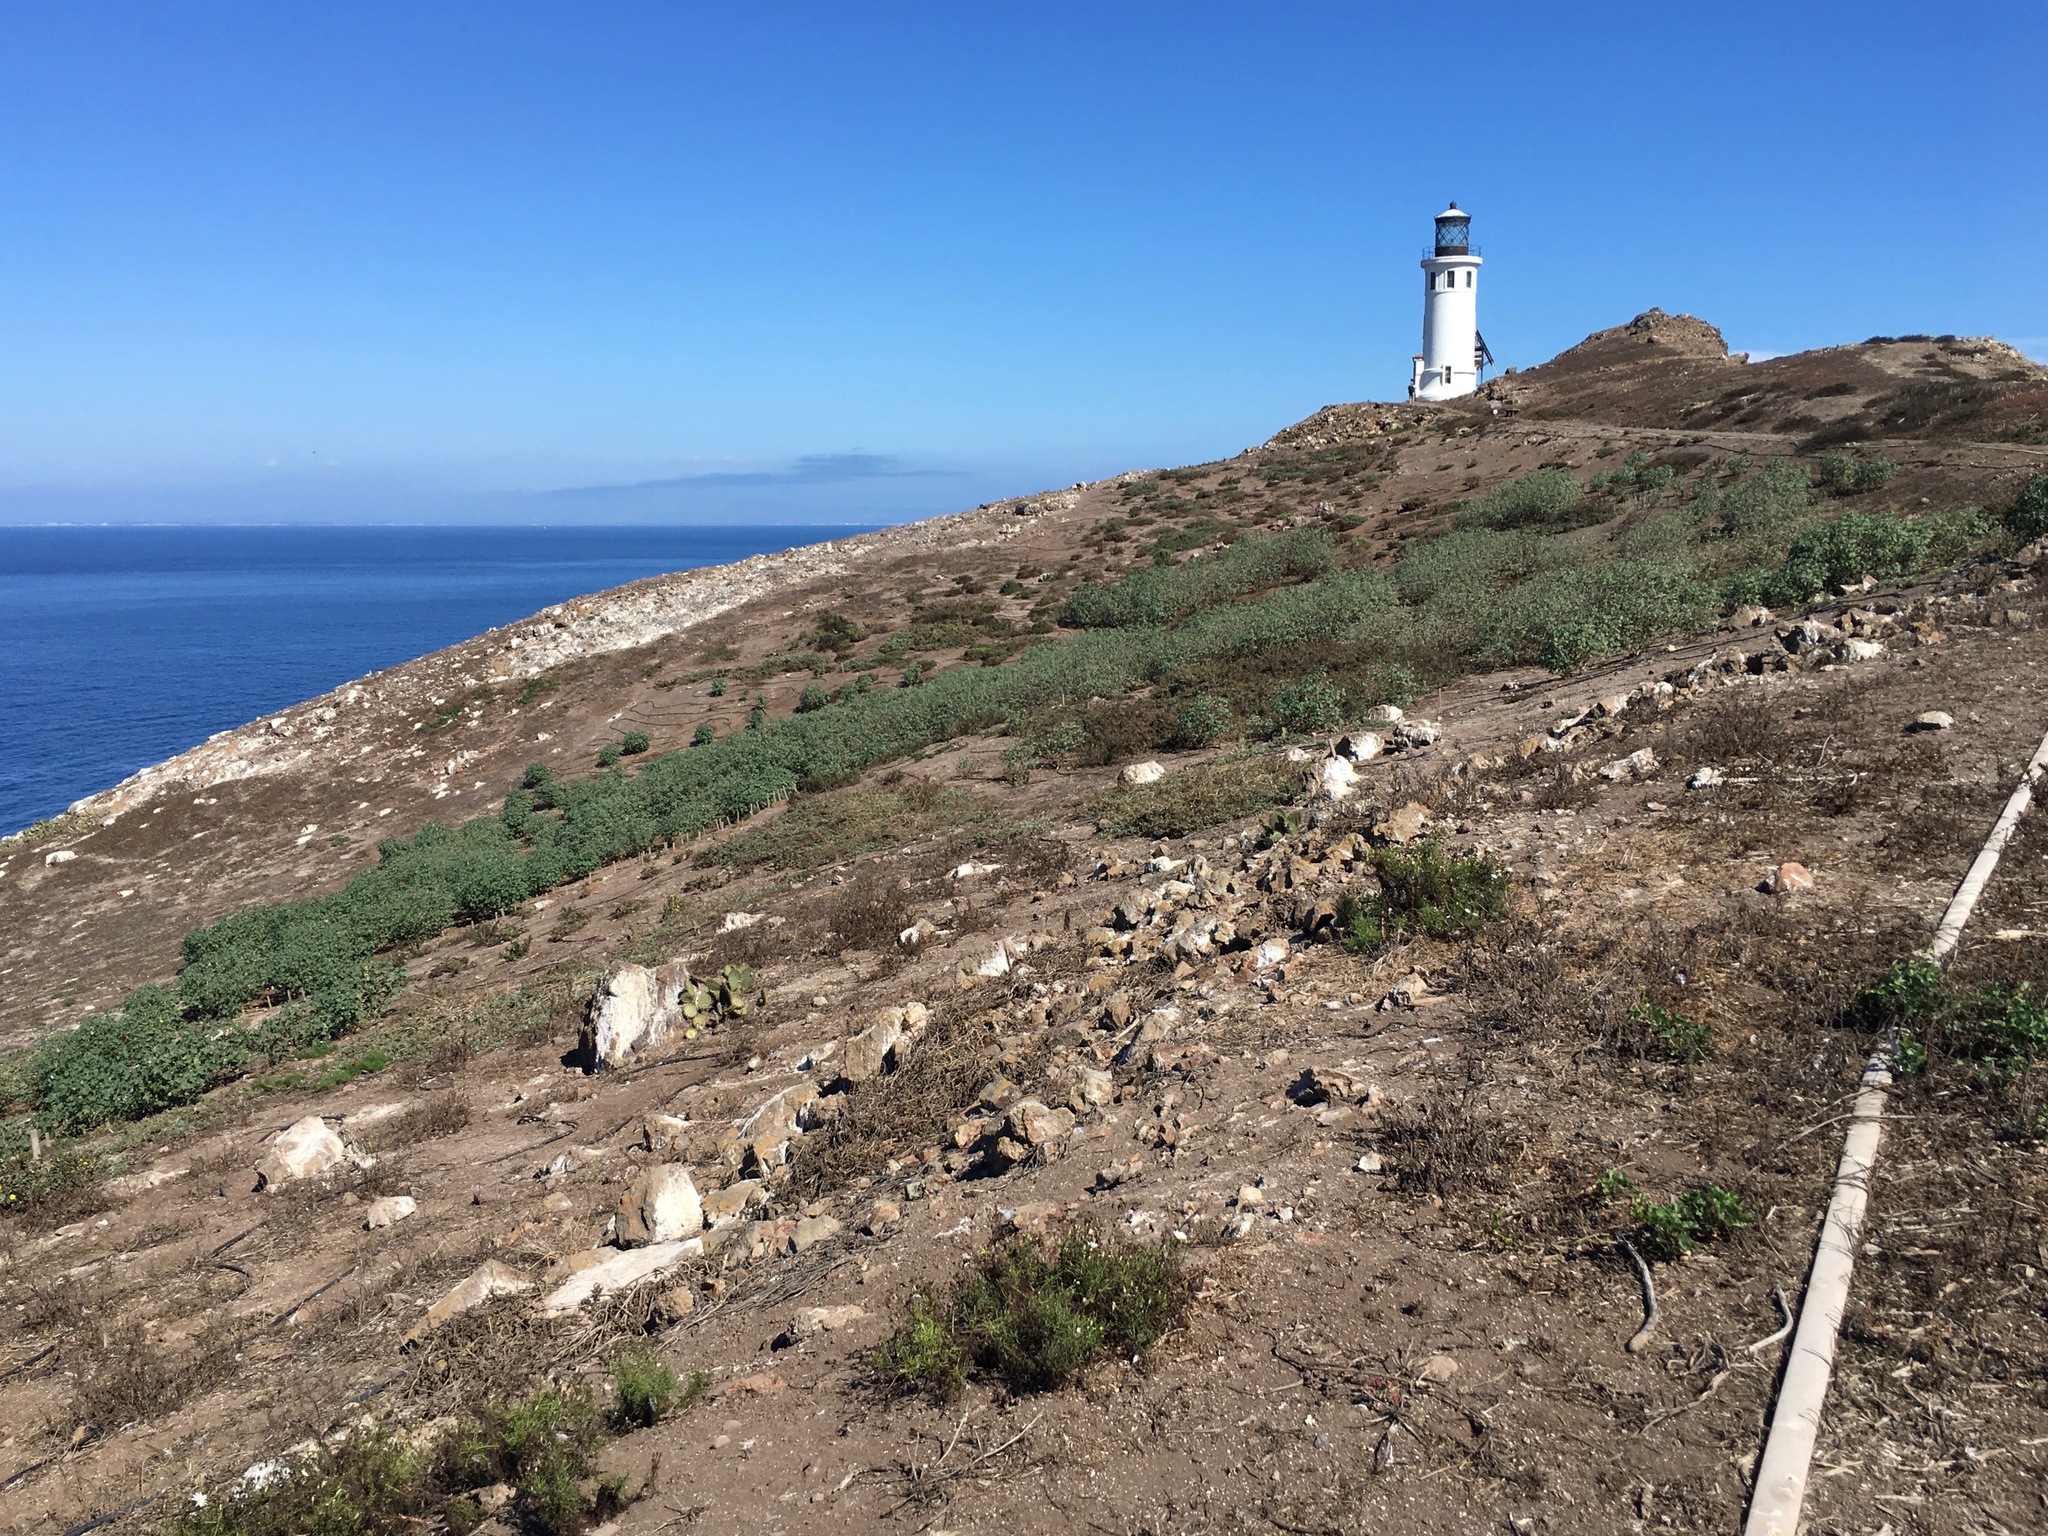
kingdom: Plantae
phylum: Tracheophyta
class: Magnoliopsida
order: Malvales
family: Malvaceae
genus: Malva
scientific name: Malva assurgentiflora
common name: Island mallow
